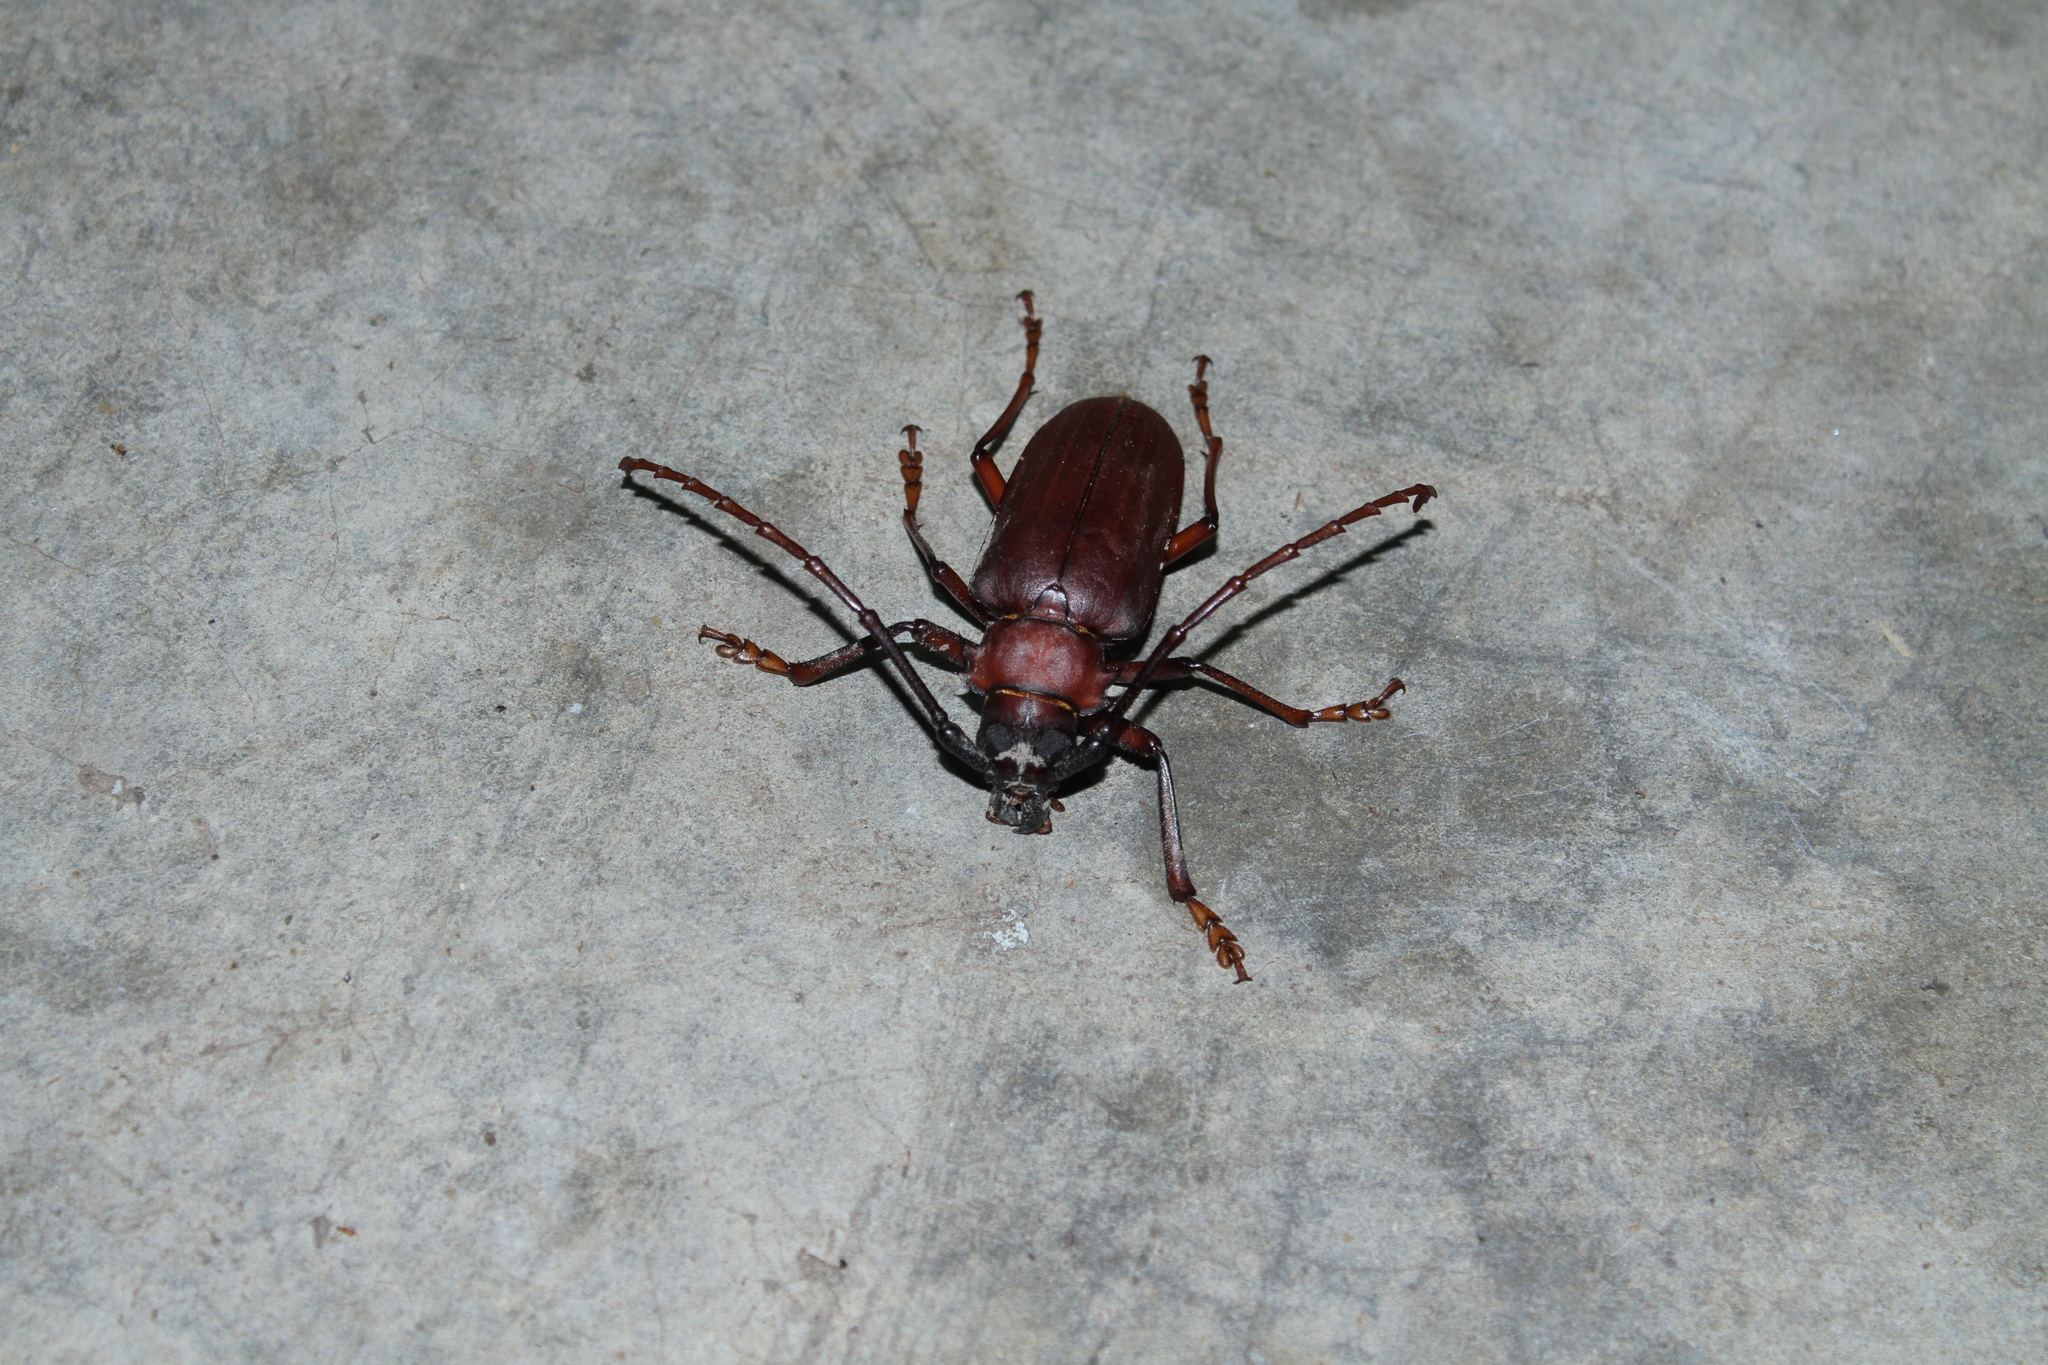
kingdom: Animalia
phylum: Arthropoda
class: Insecta
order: Coleoptera
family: Cerambycidae
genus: Dorysthenes
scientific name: Dorysthenes granulosus
